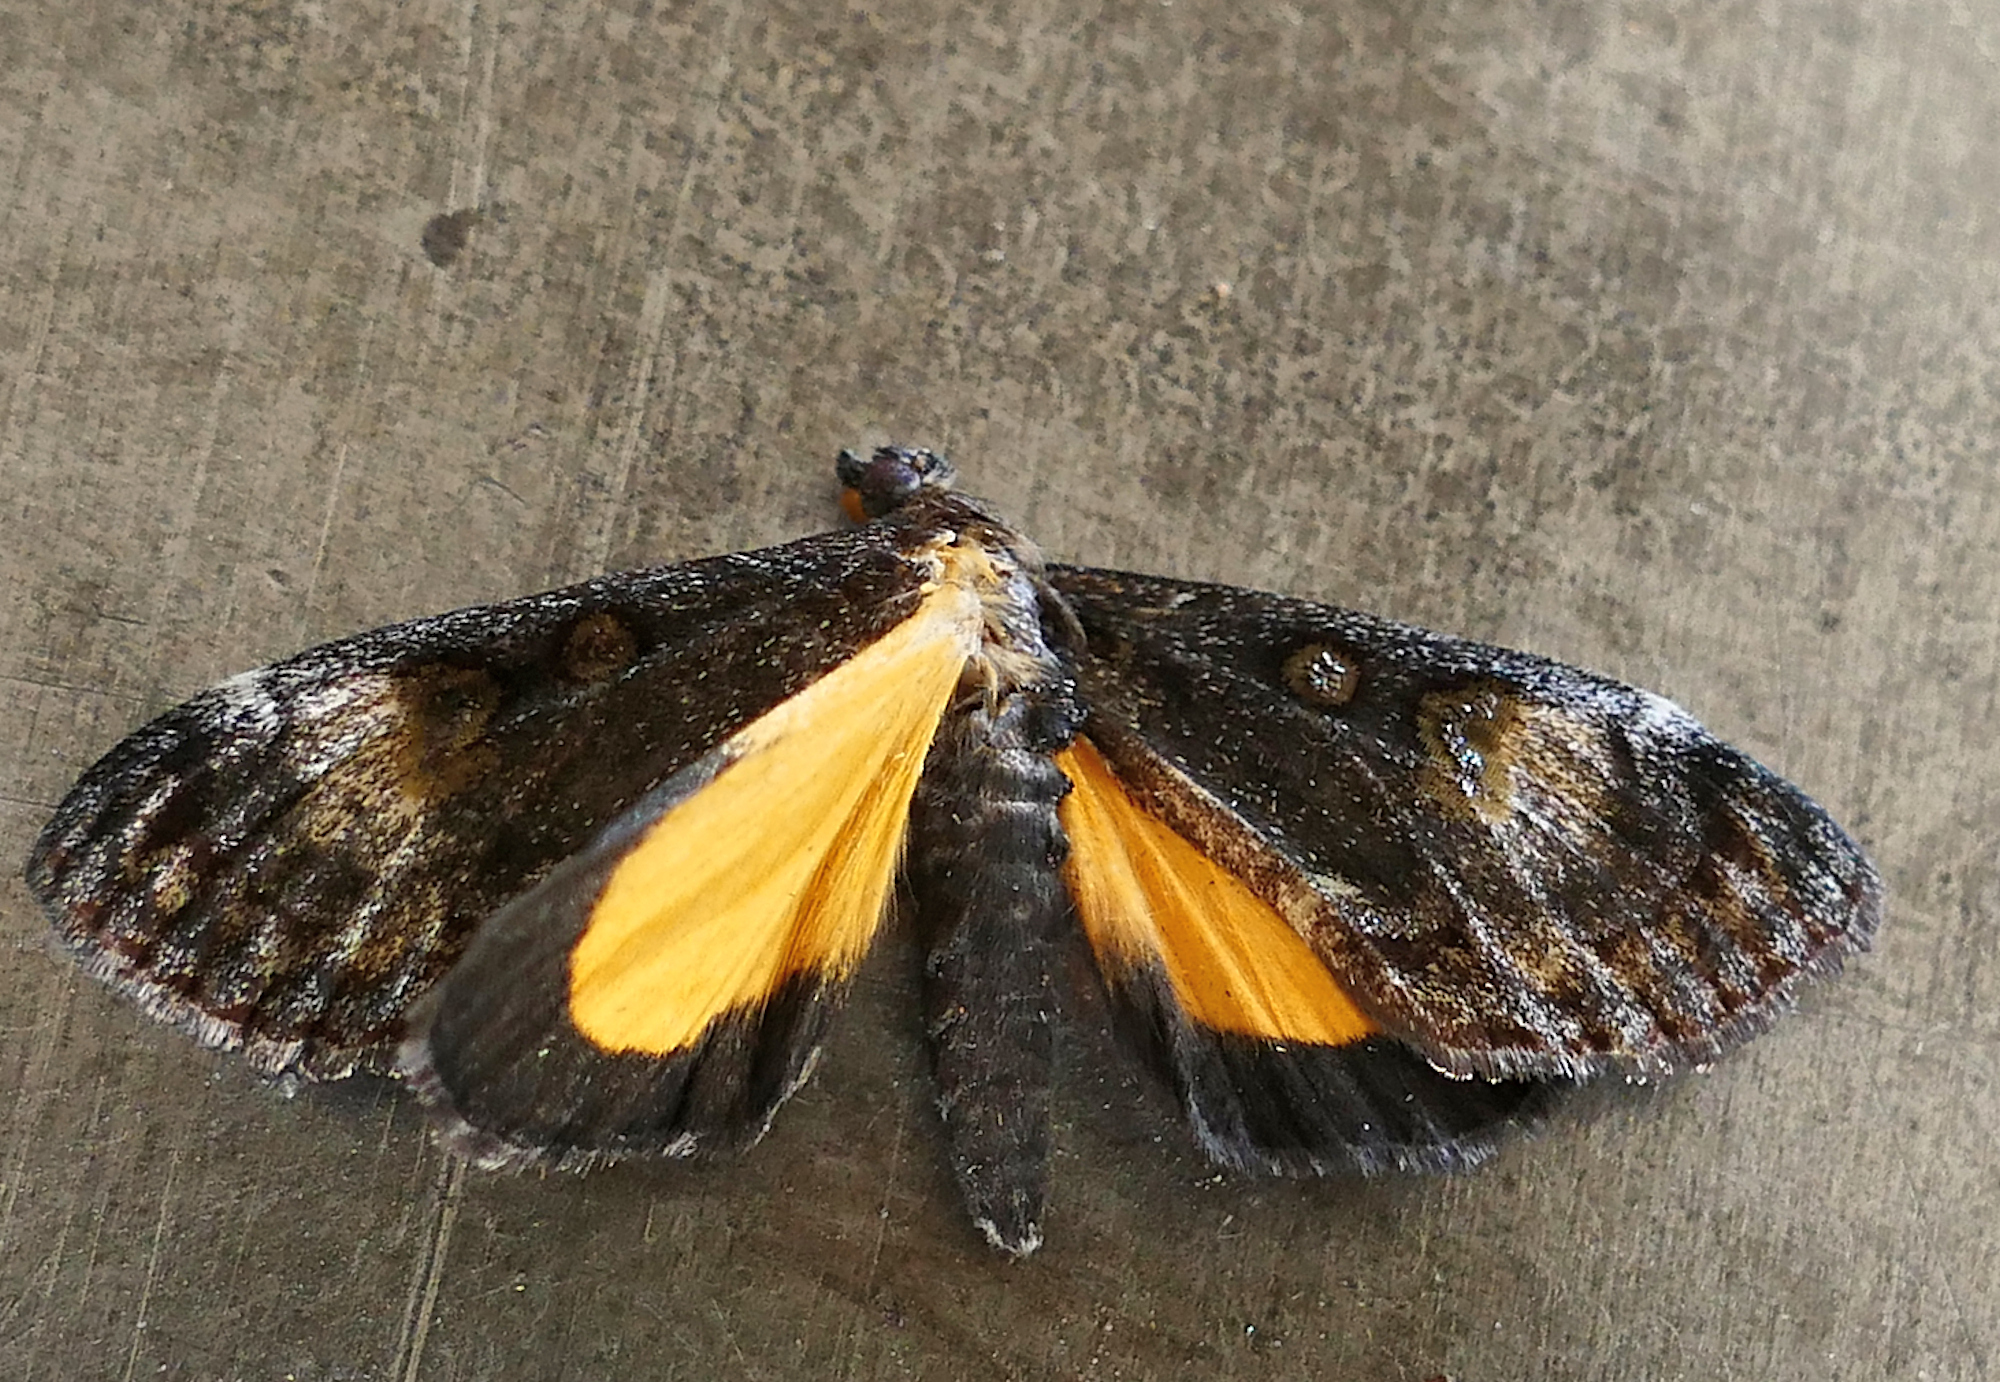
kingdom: Animalia
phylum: Arthropoda
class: Insecta
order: Lepidoptera
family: Noctuidae
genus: Gerra
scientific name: Gerra sevorsa
